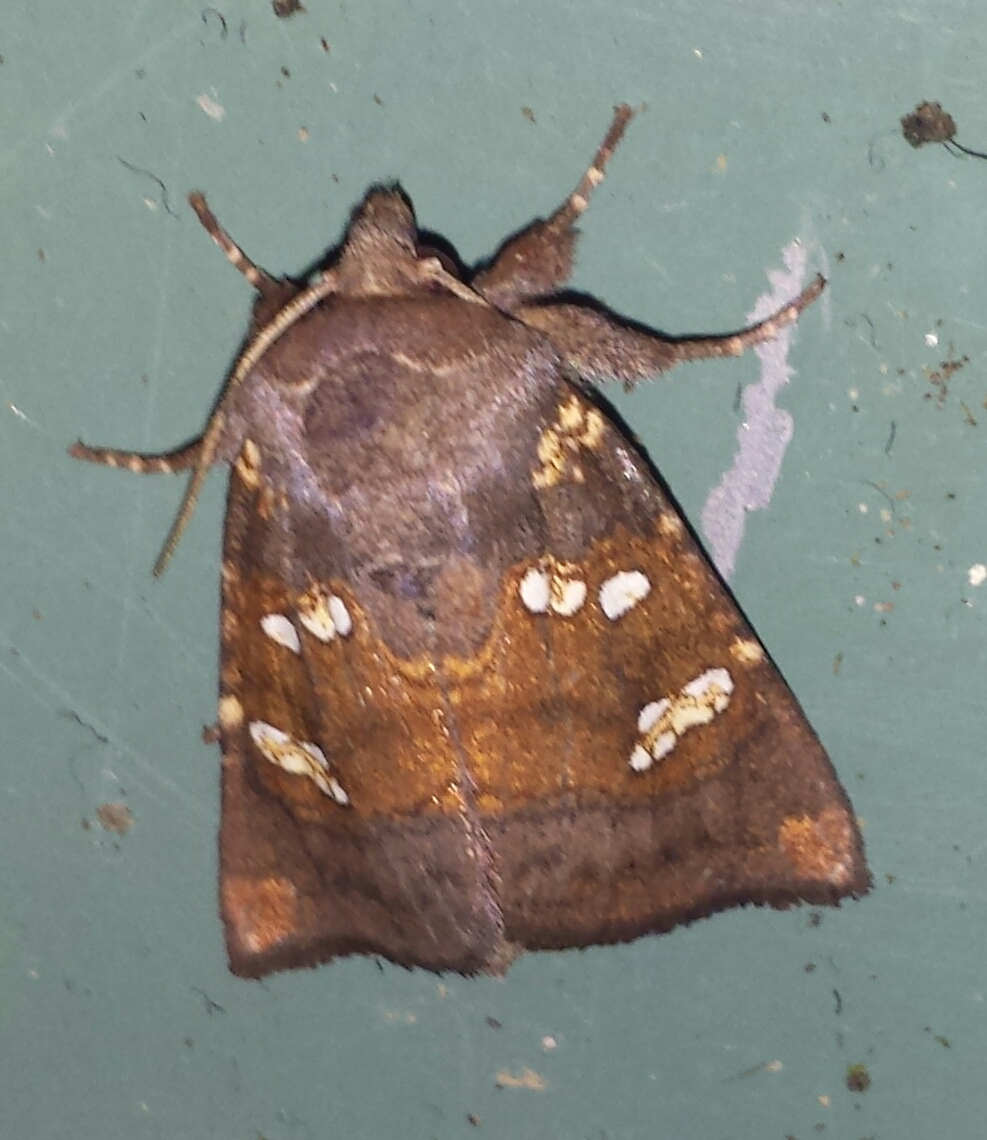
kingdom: Animalia
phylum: Arthropoda
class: Insecta
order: Lepidoptera
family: Noctuidae
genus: Papaipema
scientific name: Papaipema unimoda
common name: Meadow rue borer moth
